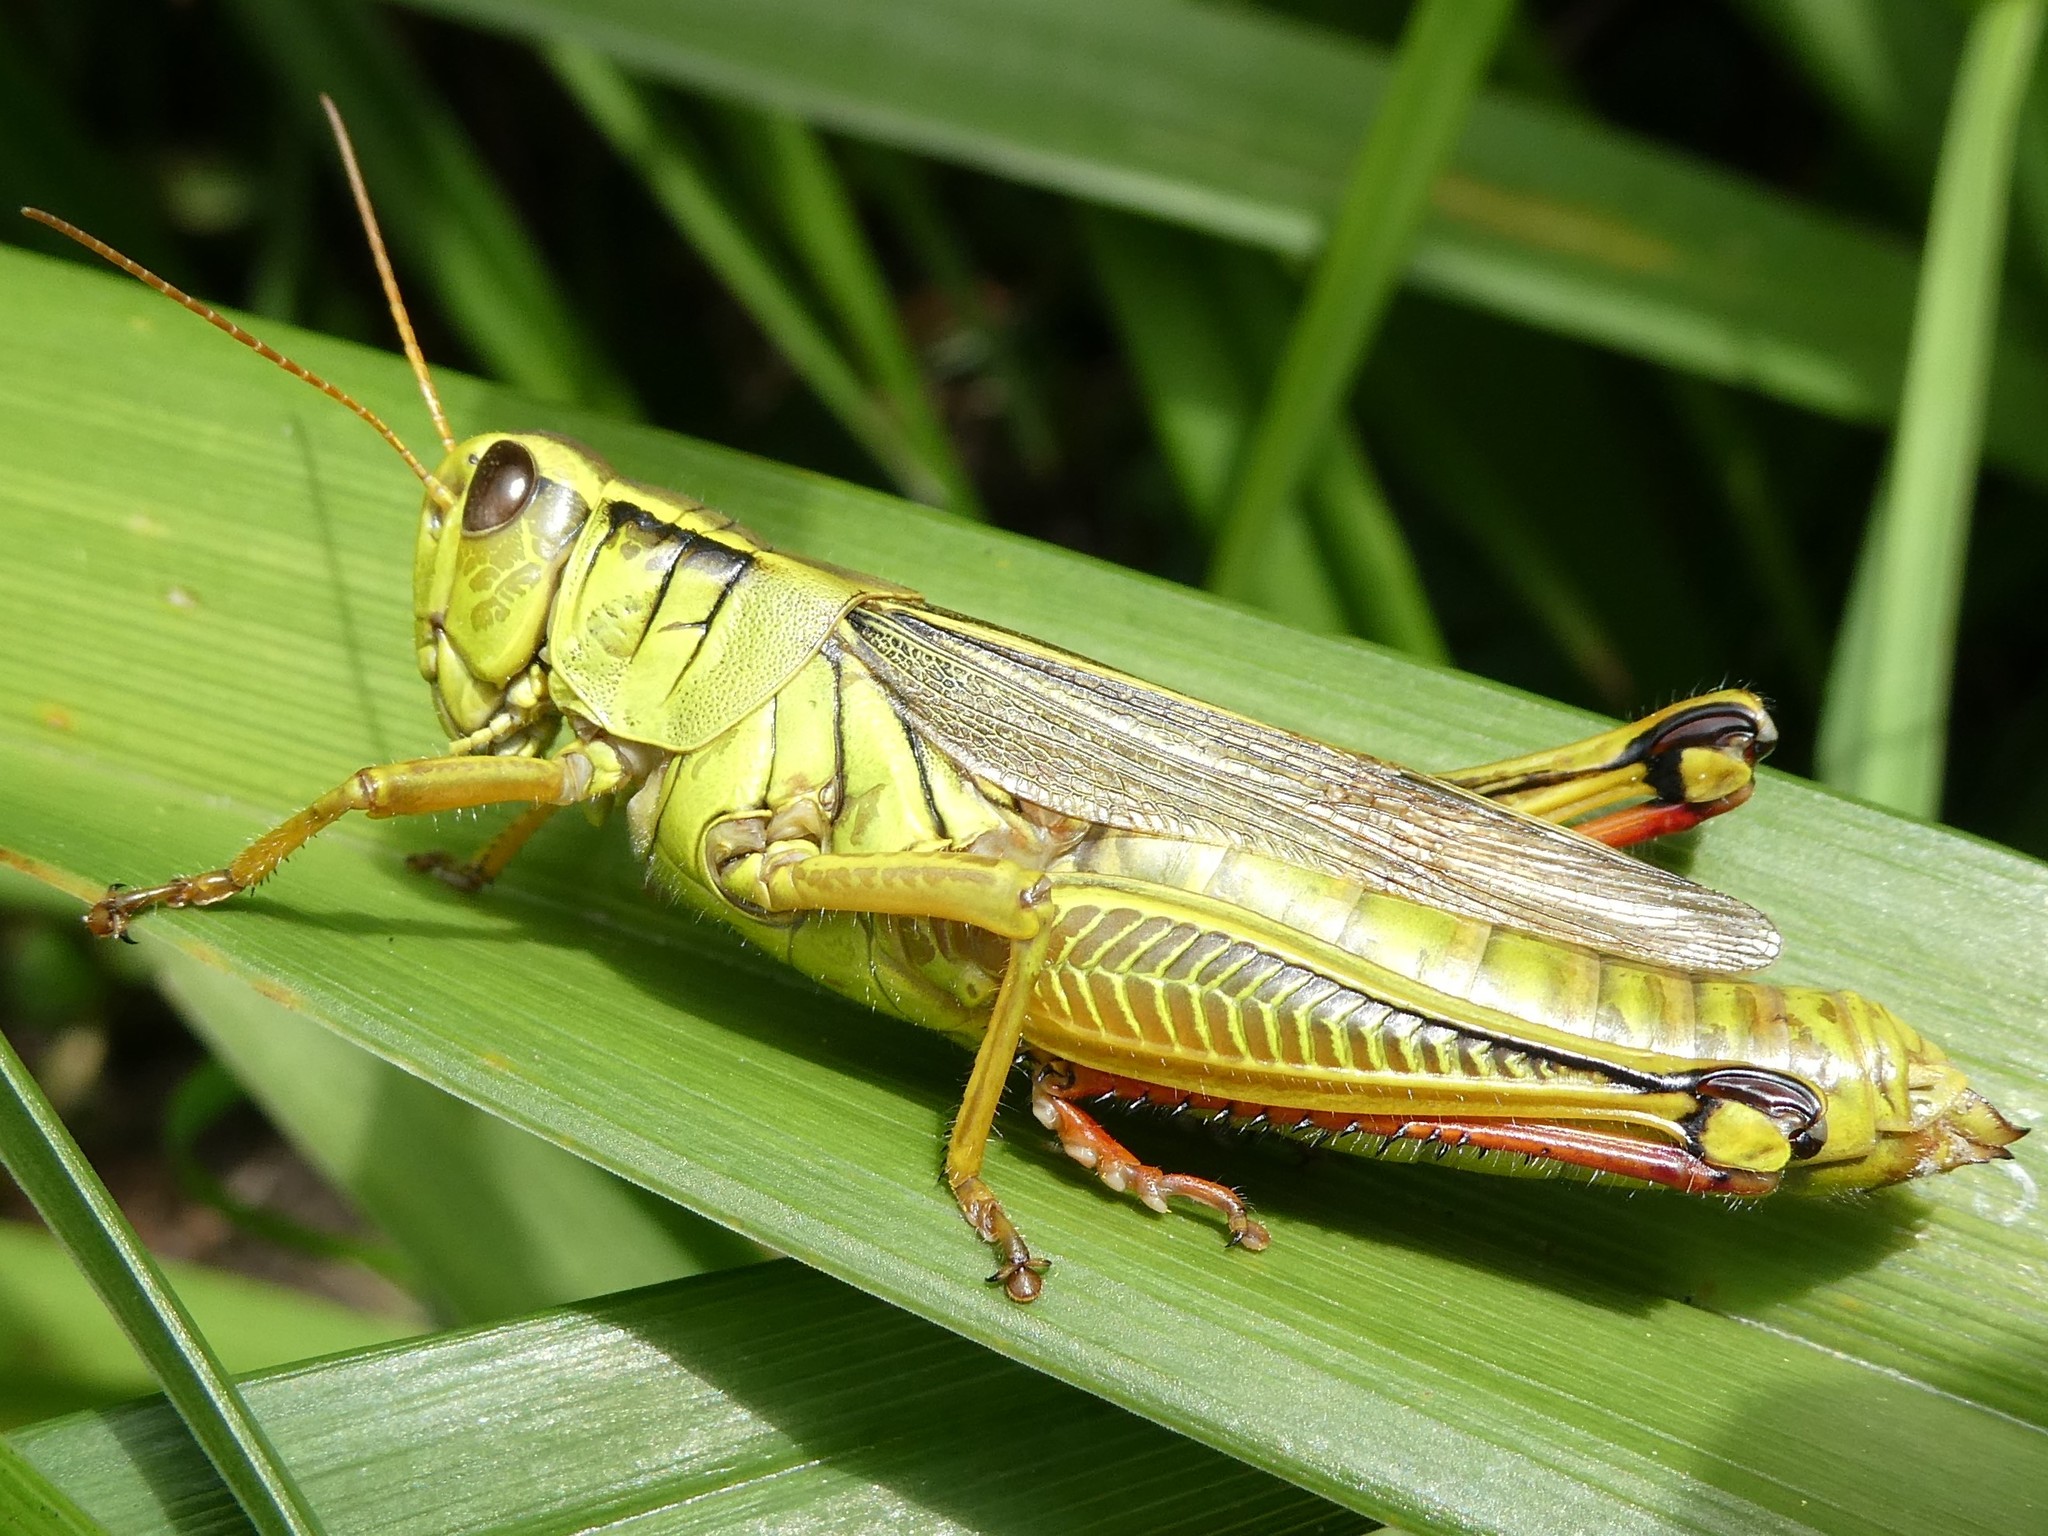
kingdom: Animalia
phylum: Arthropoda
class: Insecta
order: Orthoptera
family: Acrididae
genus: Melanoplus
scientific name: Melanoplus bivittatus
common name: Two-striped grasshopper
